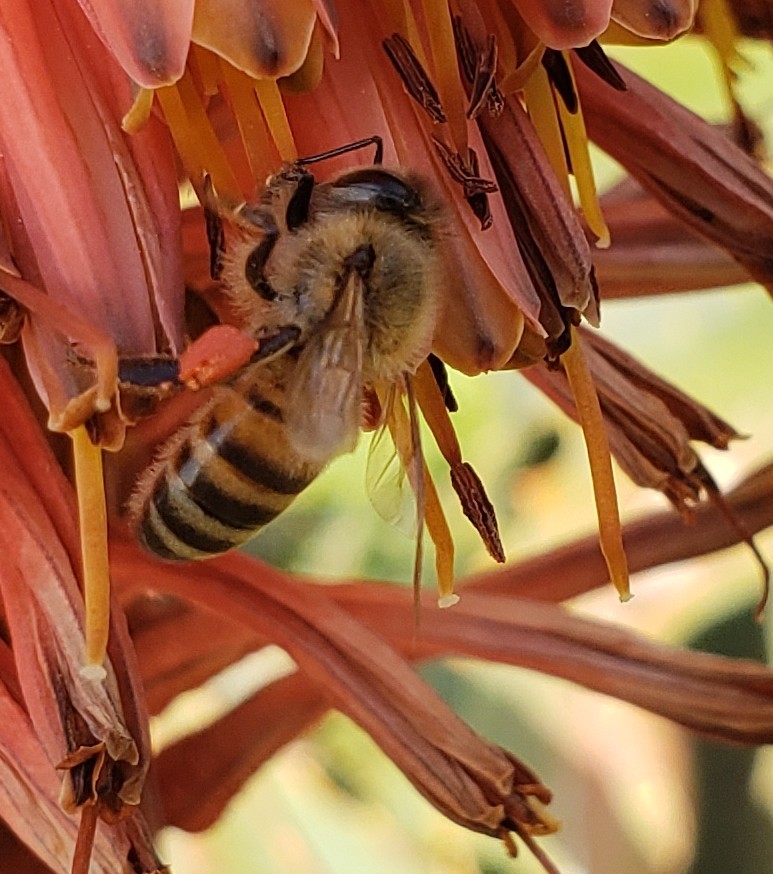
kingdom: Animalia
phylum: Arthropoda
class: Insecta
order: Hymenoptera
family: Apidae
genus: Apis
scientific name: Apis mellifera
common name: Honey bee
